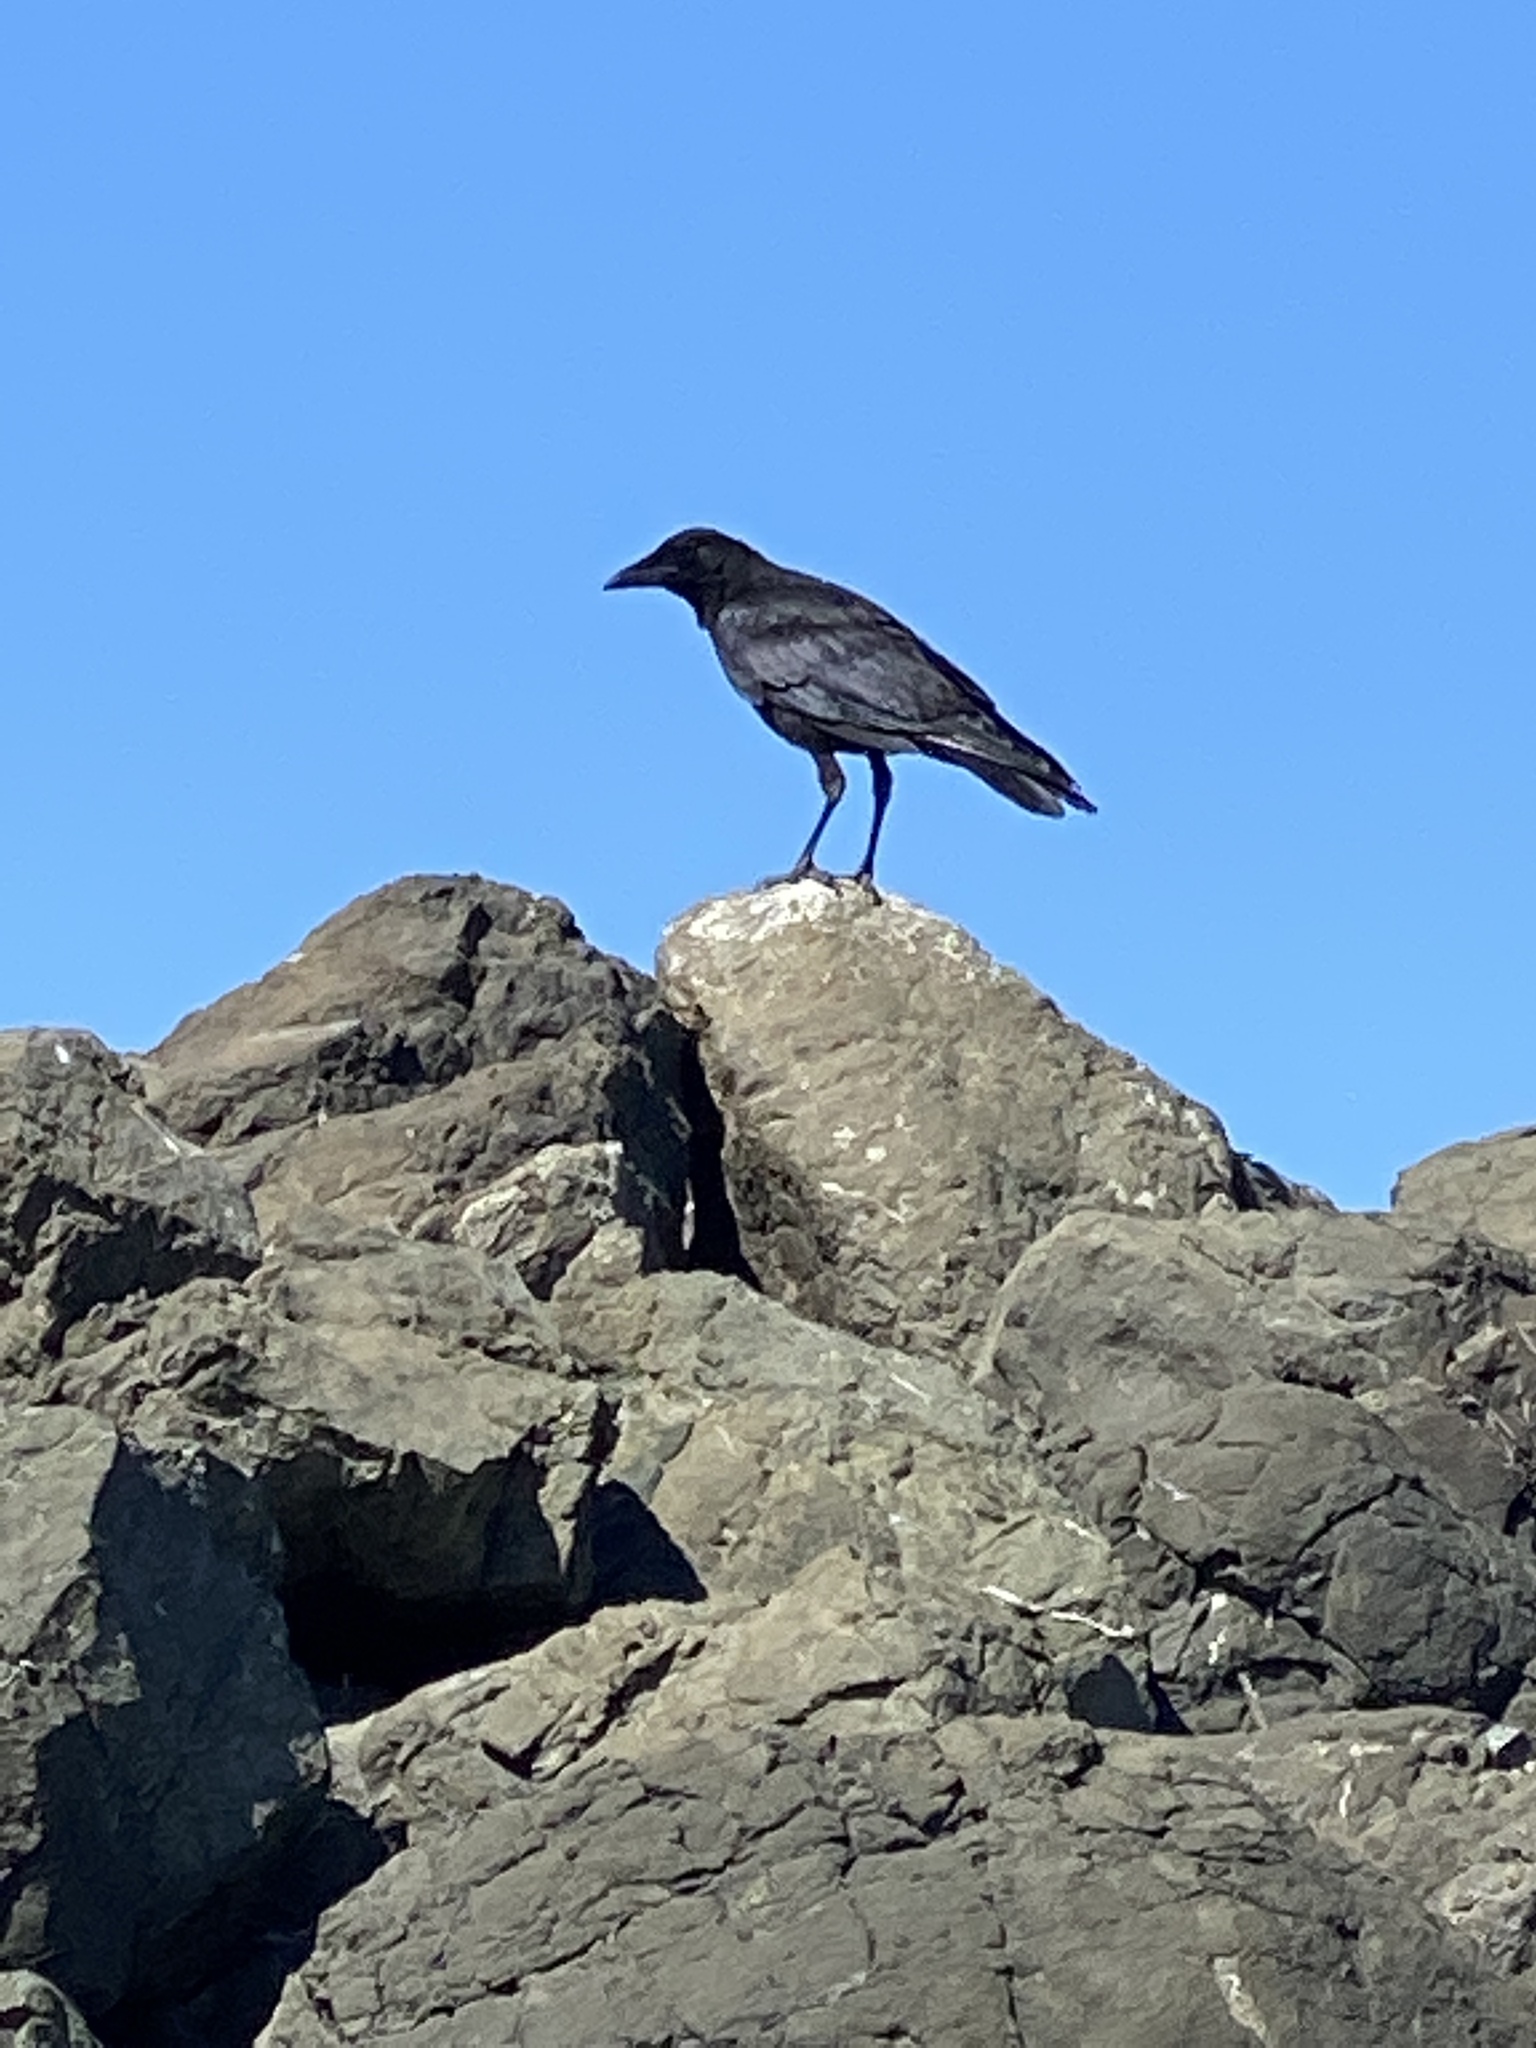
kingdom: Animalia
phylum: Chordata
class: Aves
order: Passeriformes
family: Corvidae
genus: Corvus
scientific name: Corvus brachyrhynchos
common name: American crow
